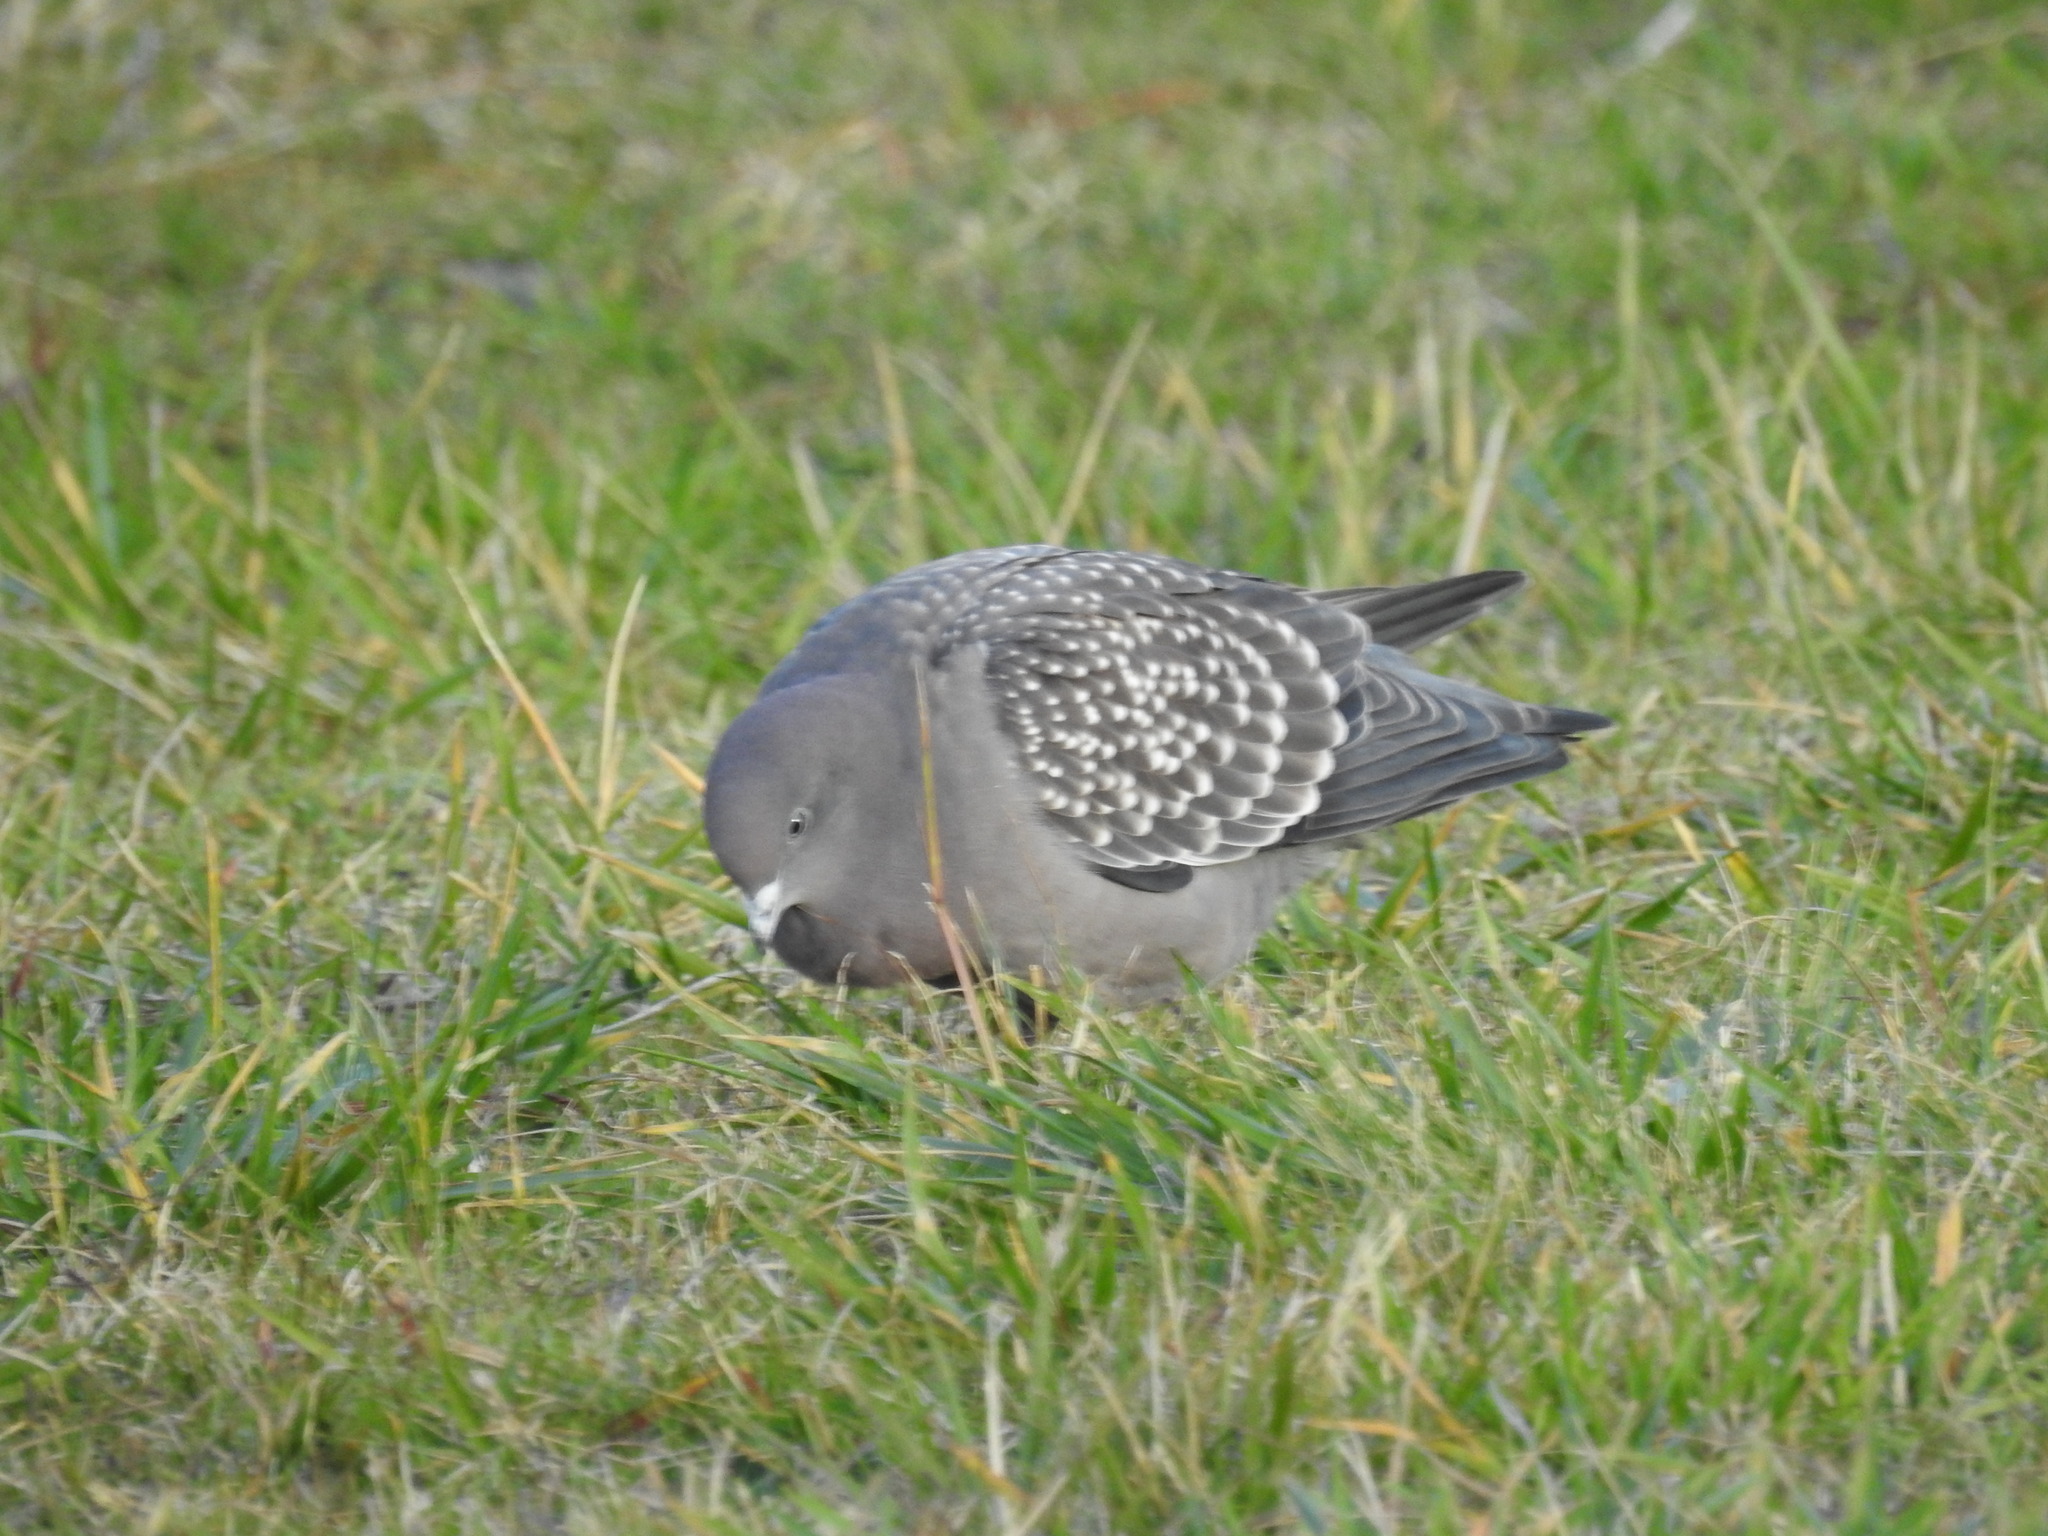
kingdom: Animalia
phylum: Chordata
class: Aves
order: Columbiformes
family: Columbidae
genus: Patagioenas
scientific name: Patagioenas maculosa
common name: Spot-winged pigeon
